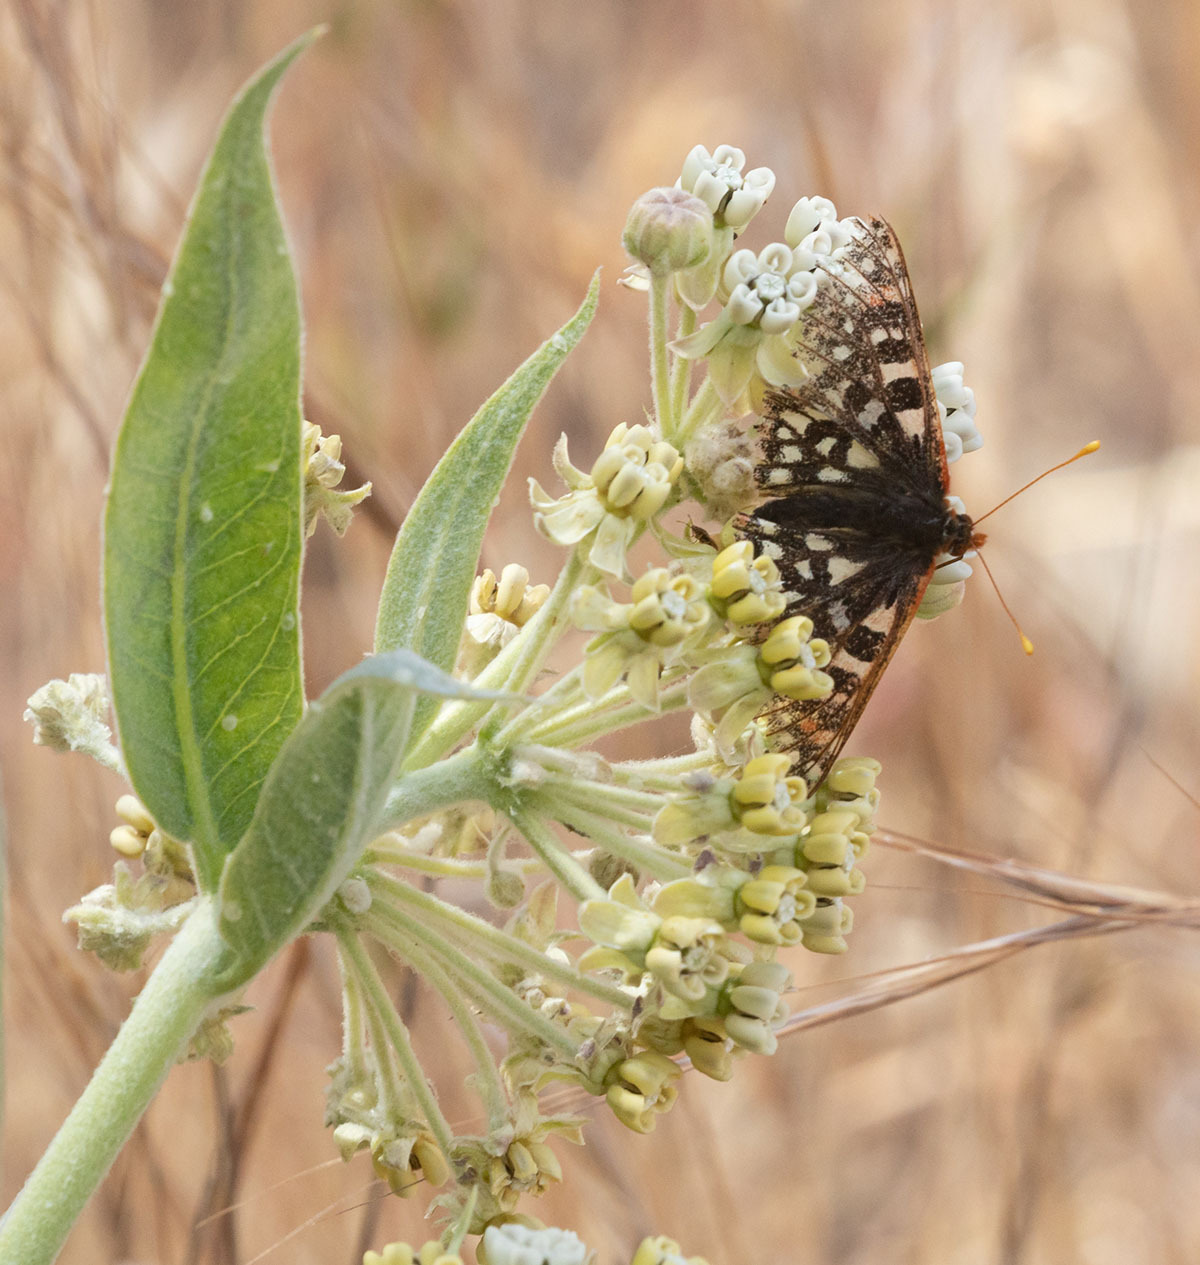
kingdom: Animalia
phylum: Arthropoda
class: Insecta
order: Lepidoptera
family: Nymphalidae
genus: Occidryas
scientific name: Occidryas chalcedona
